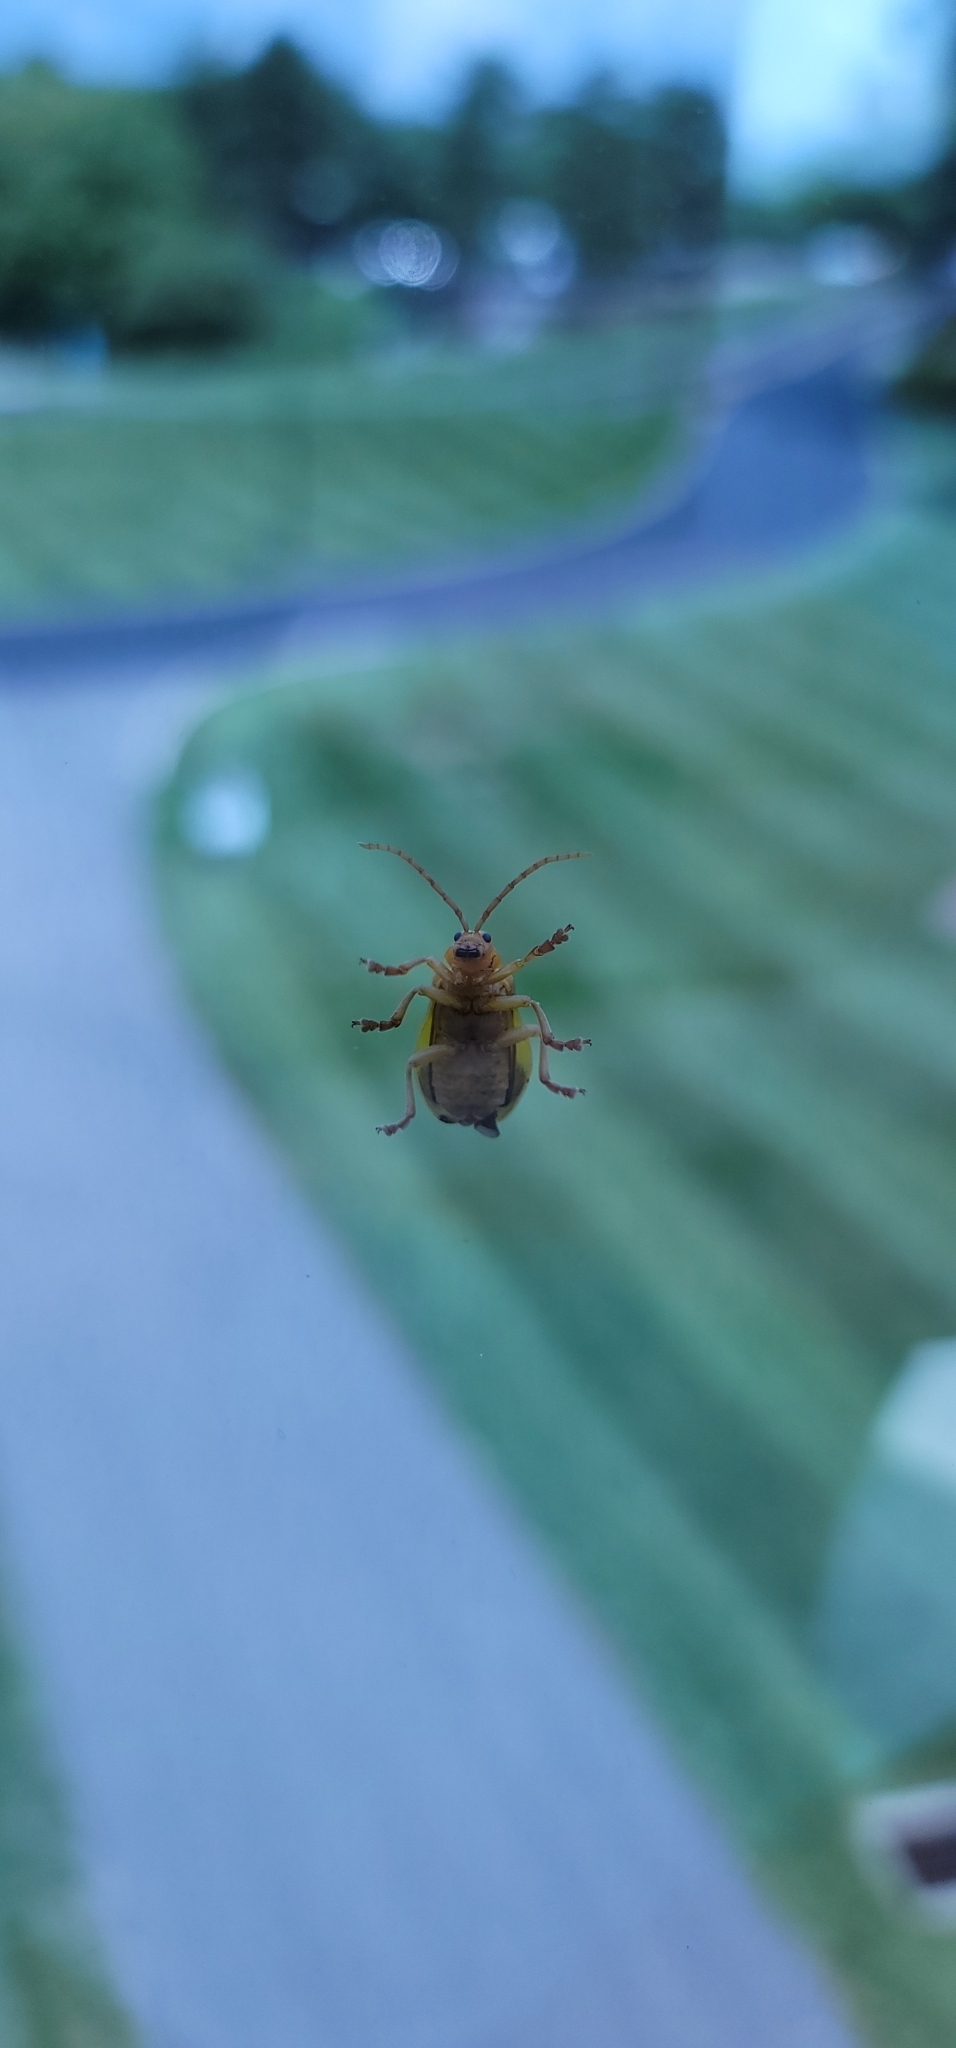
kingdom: Animalia
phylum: Arthropoda
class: Insecta
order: Coleoptera
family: Chrysomelidae
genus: Monocesta
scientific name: Monocesta coryli
